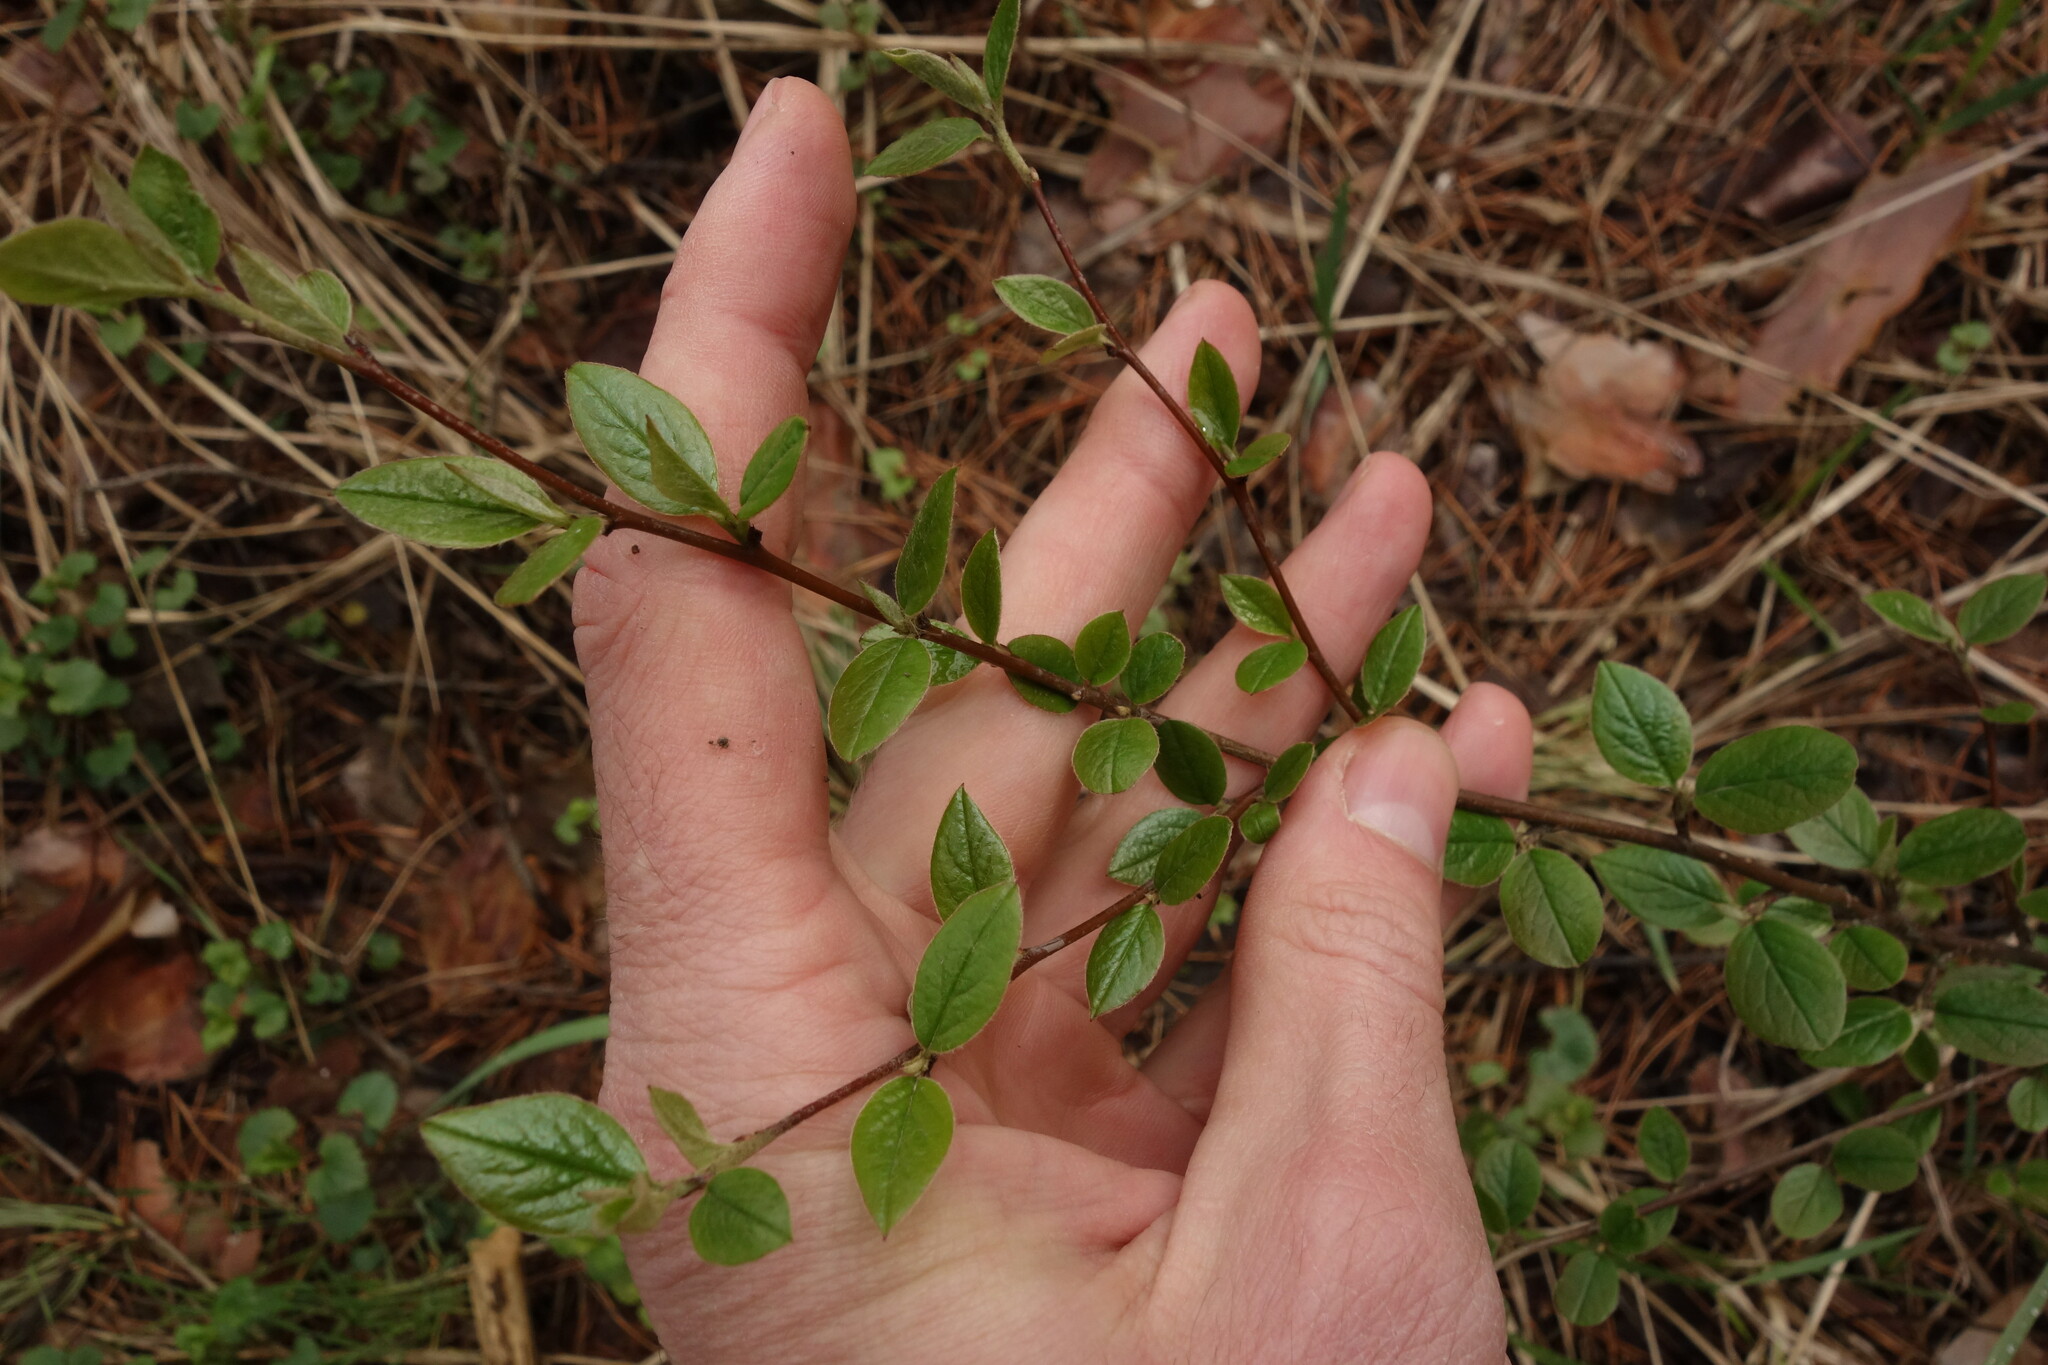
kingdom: Plantae
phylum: Tracheophyta
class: Magnoliopsida
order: Rosales
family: Rosaceae
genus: Cotoneaster
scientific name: Cotoneaster acutifolius
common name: Peking cotoneaster
